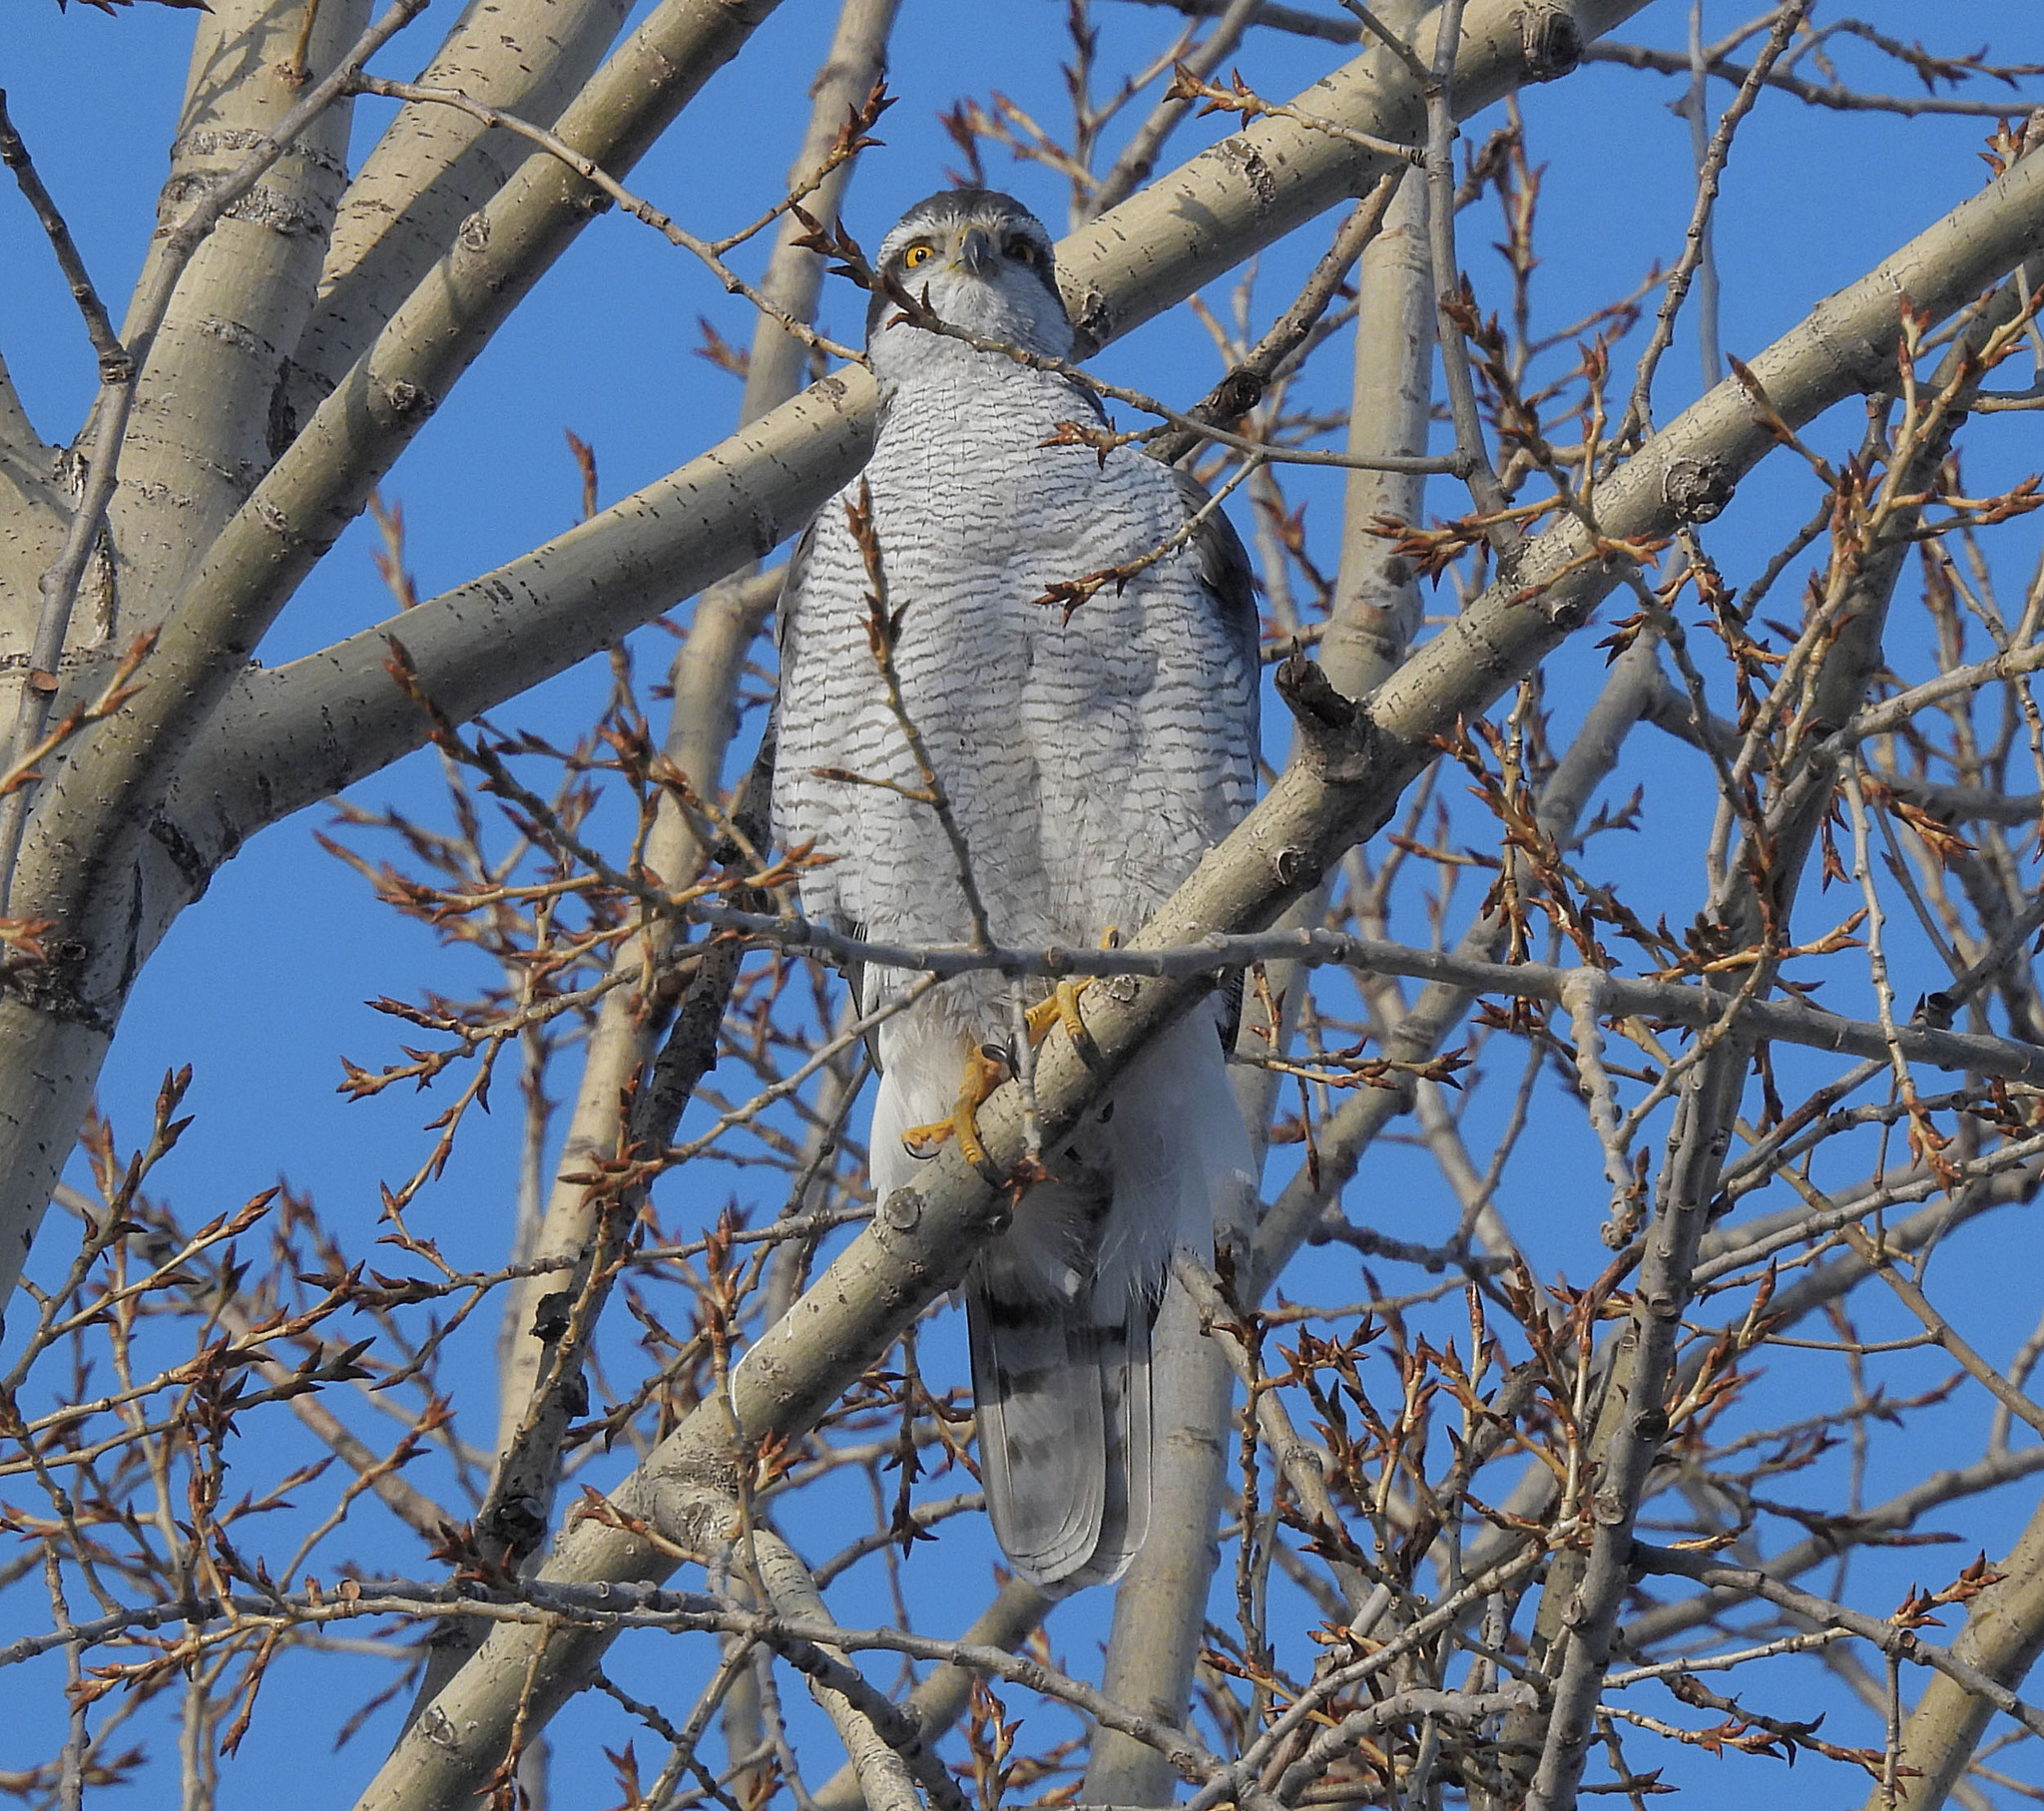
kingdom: Animalia
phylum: Chordata
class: Aves
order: Accipitriformes
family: Accipitridae
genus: Accipiter
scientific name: Accipiter gentilis
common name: Northern goshawk
